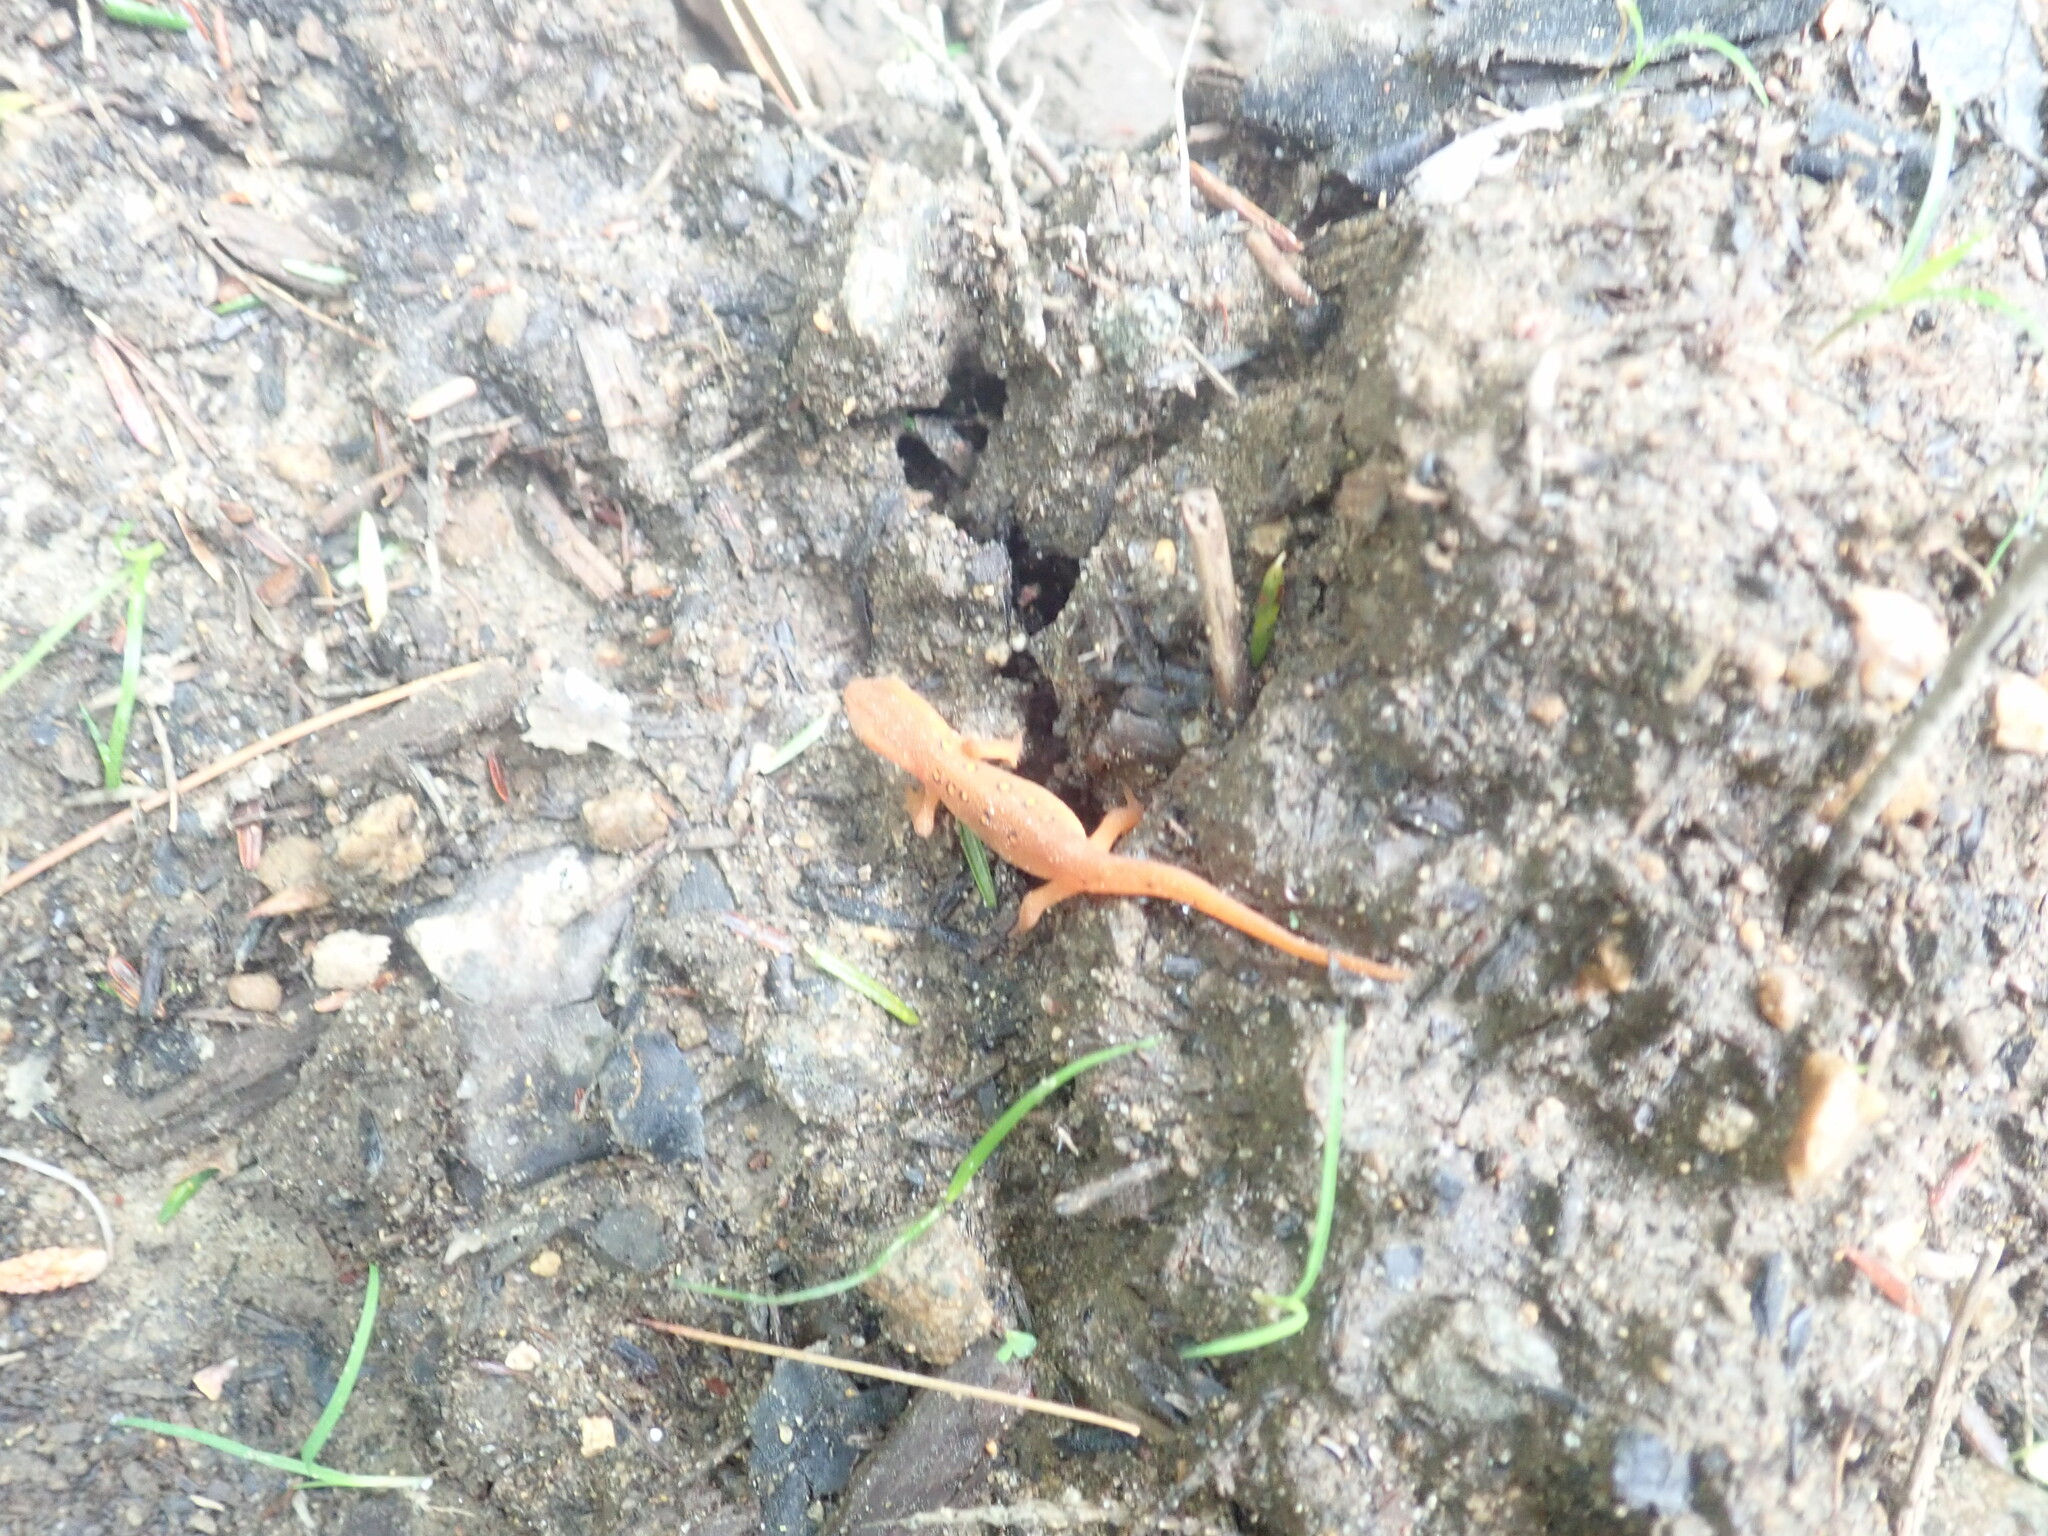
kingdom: Animalia
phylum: Chordata
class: Amphibia
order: Caudata
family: Salamandridae
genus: Notophthalmus
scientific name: Notophthalmus viridescens
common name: Eastern newt
